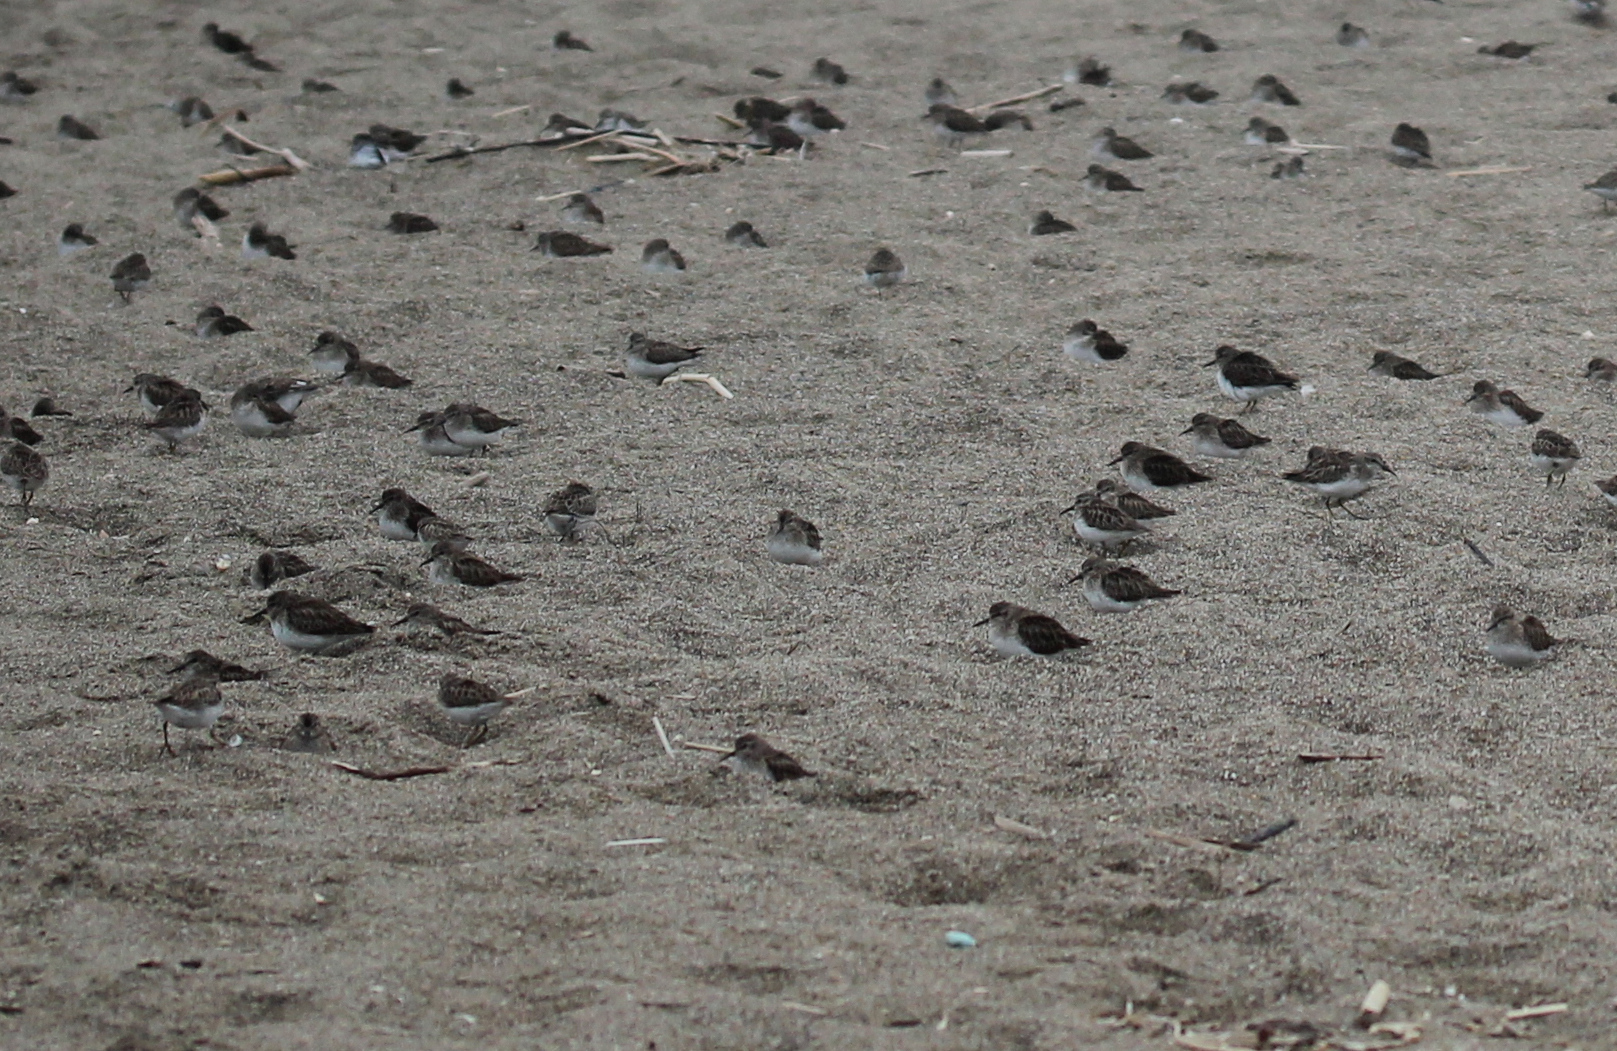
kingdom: Animalia
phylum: Chordata
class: Aves
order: Charadriiformes
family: Scolopacidae
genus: Calidris
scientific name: Calidris minutilla
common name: Least sandpiper
